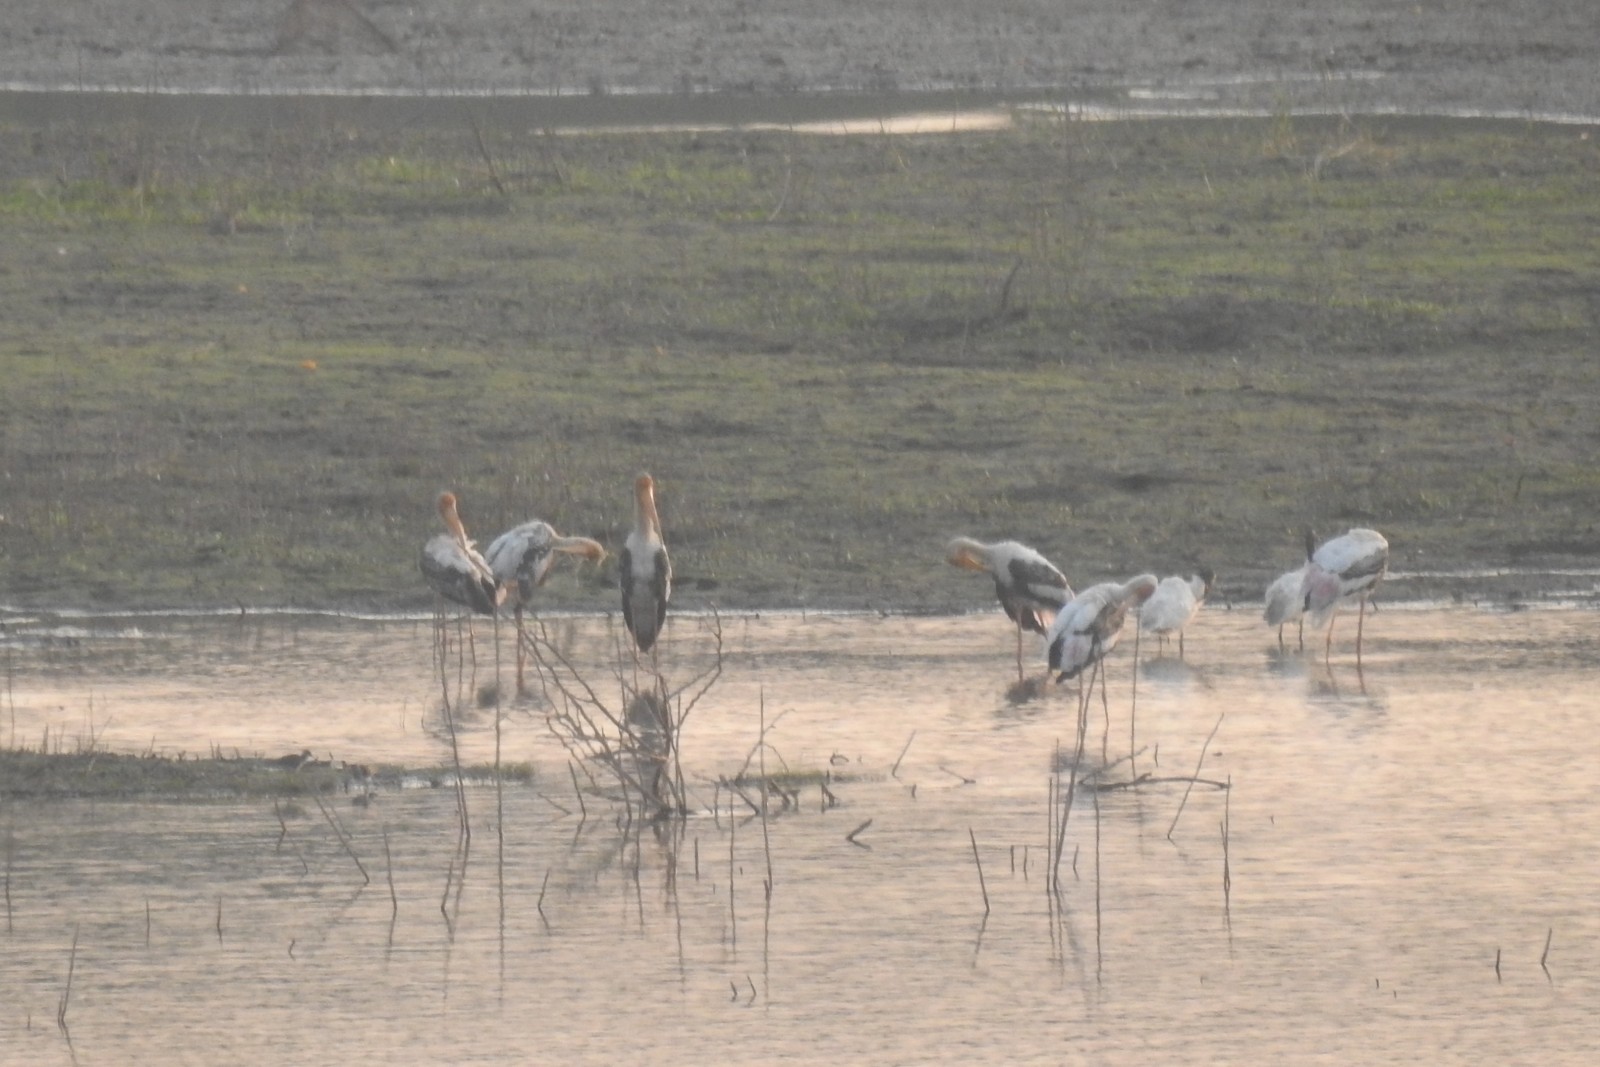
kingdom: Animalia
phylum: Chordata
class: Aves
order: Ciconiiformes
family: Ciconiidae
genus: Mycteria
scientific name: Mycteria leucocephala
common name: Painted stork
